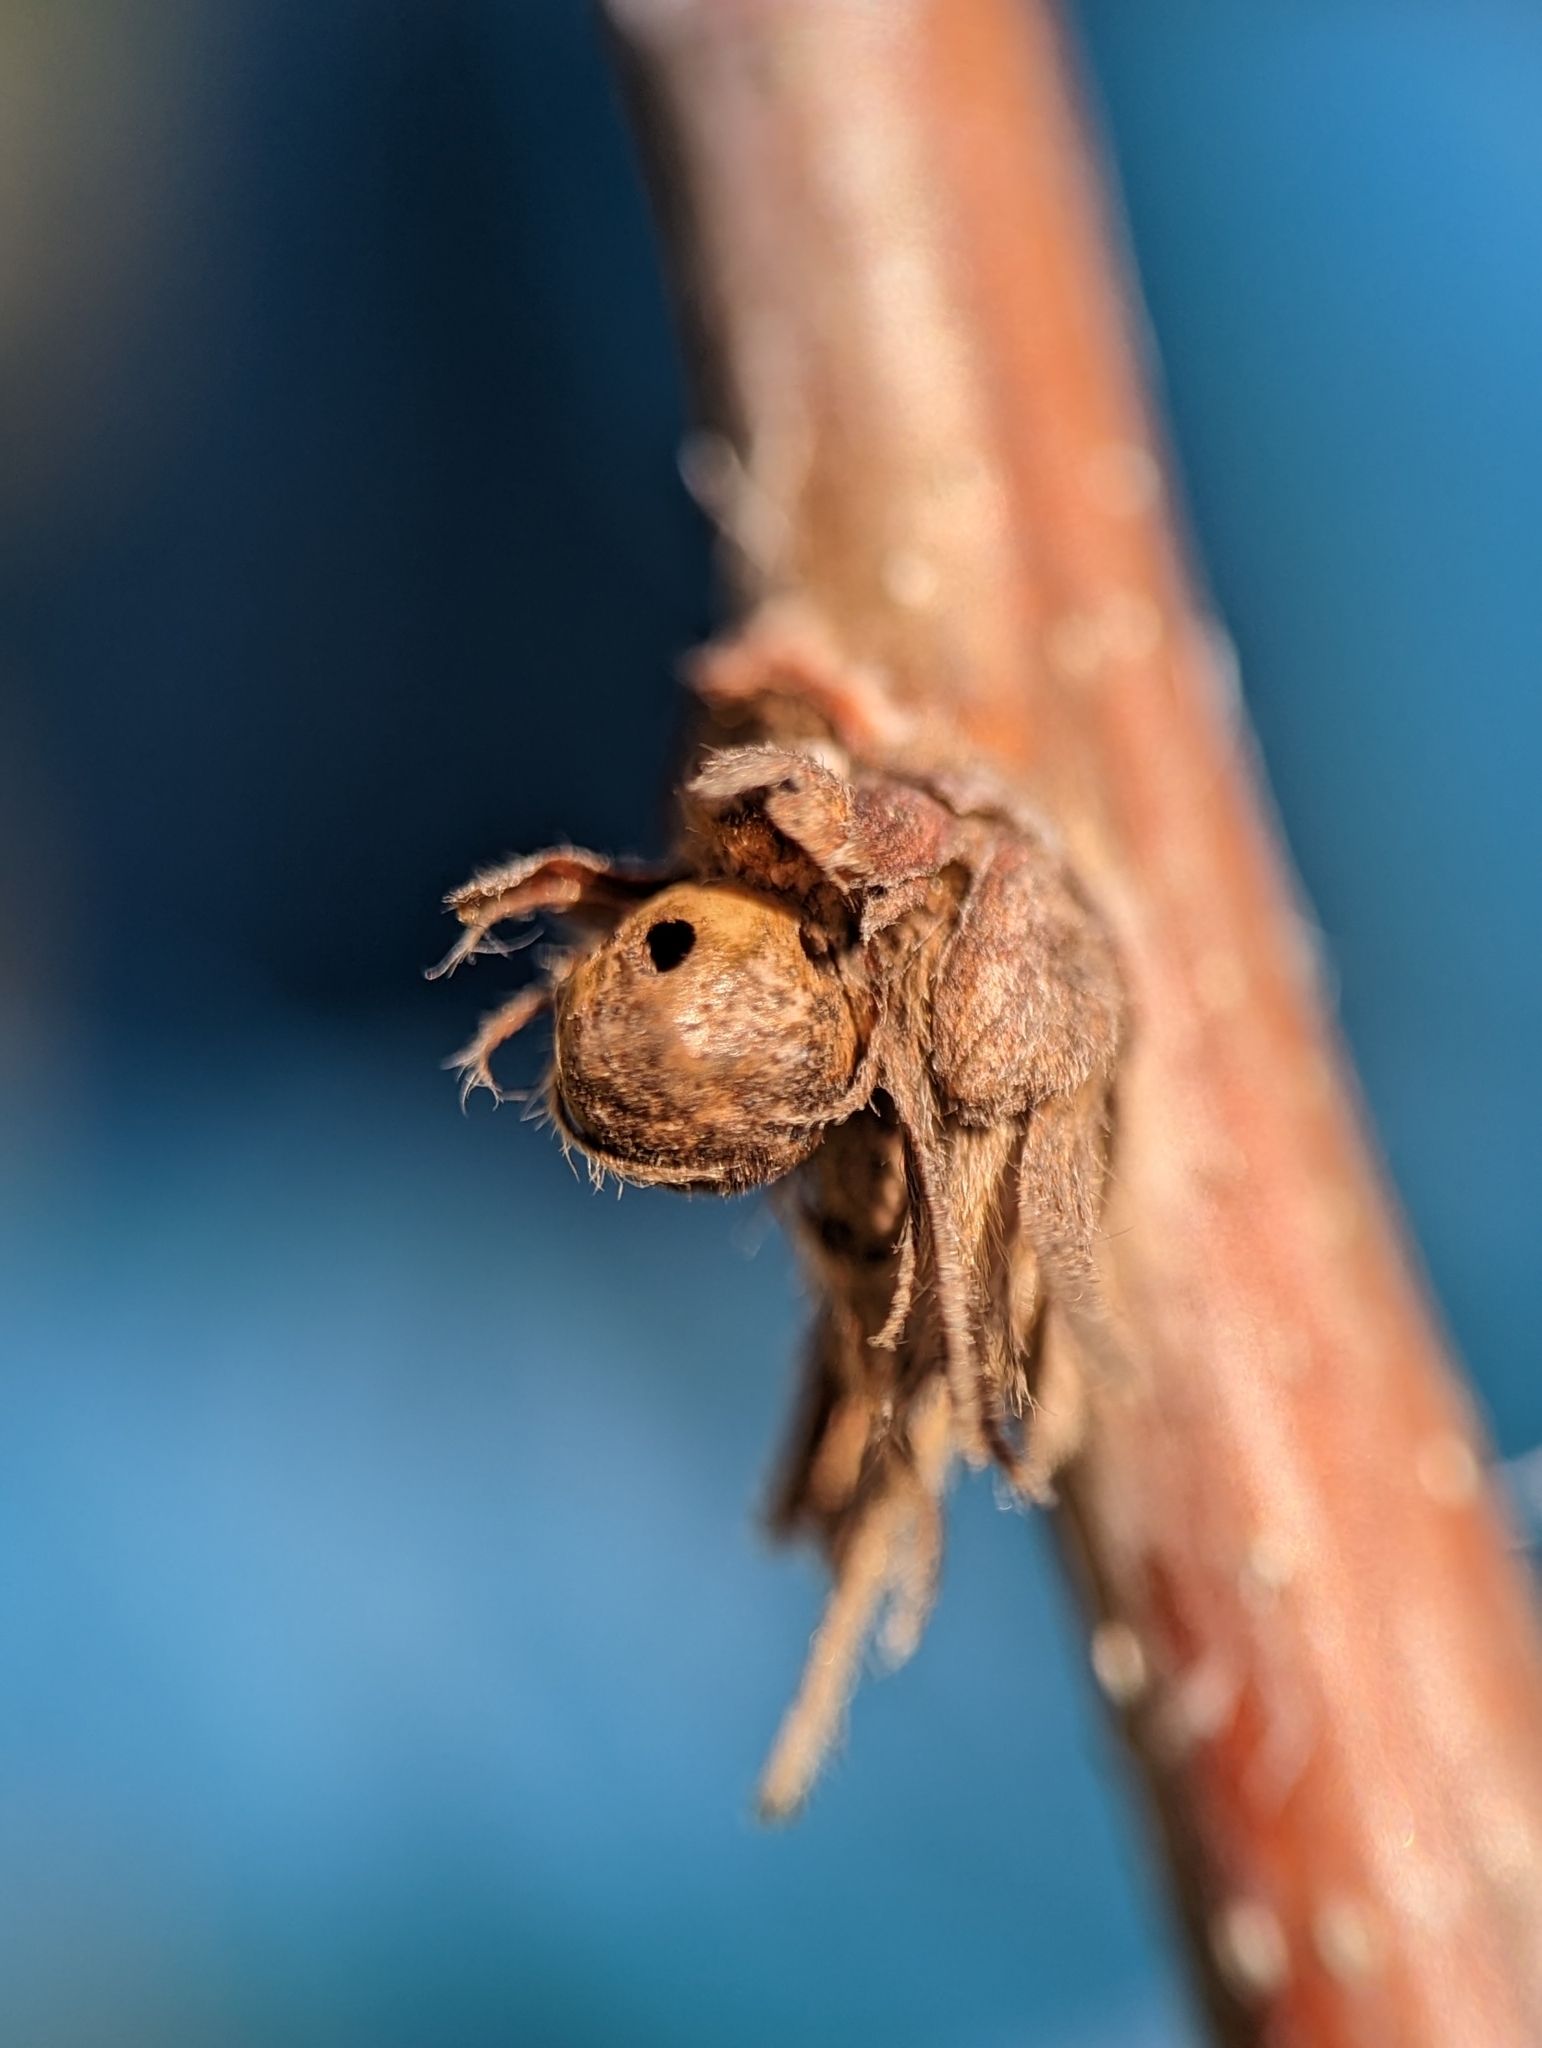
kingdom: Animalia
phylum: Arthropoda
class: Insecta
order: Hymenoptera
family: Cynipidae
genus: Andricus
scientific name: Andricus
